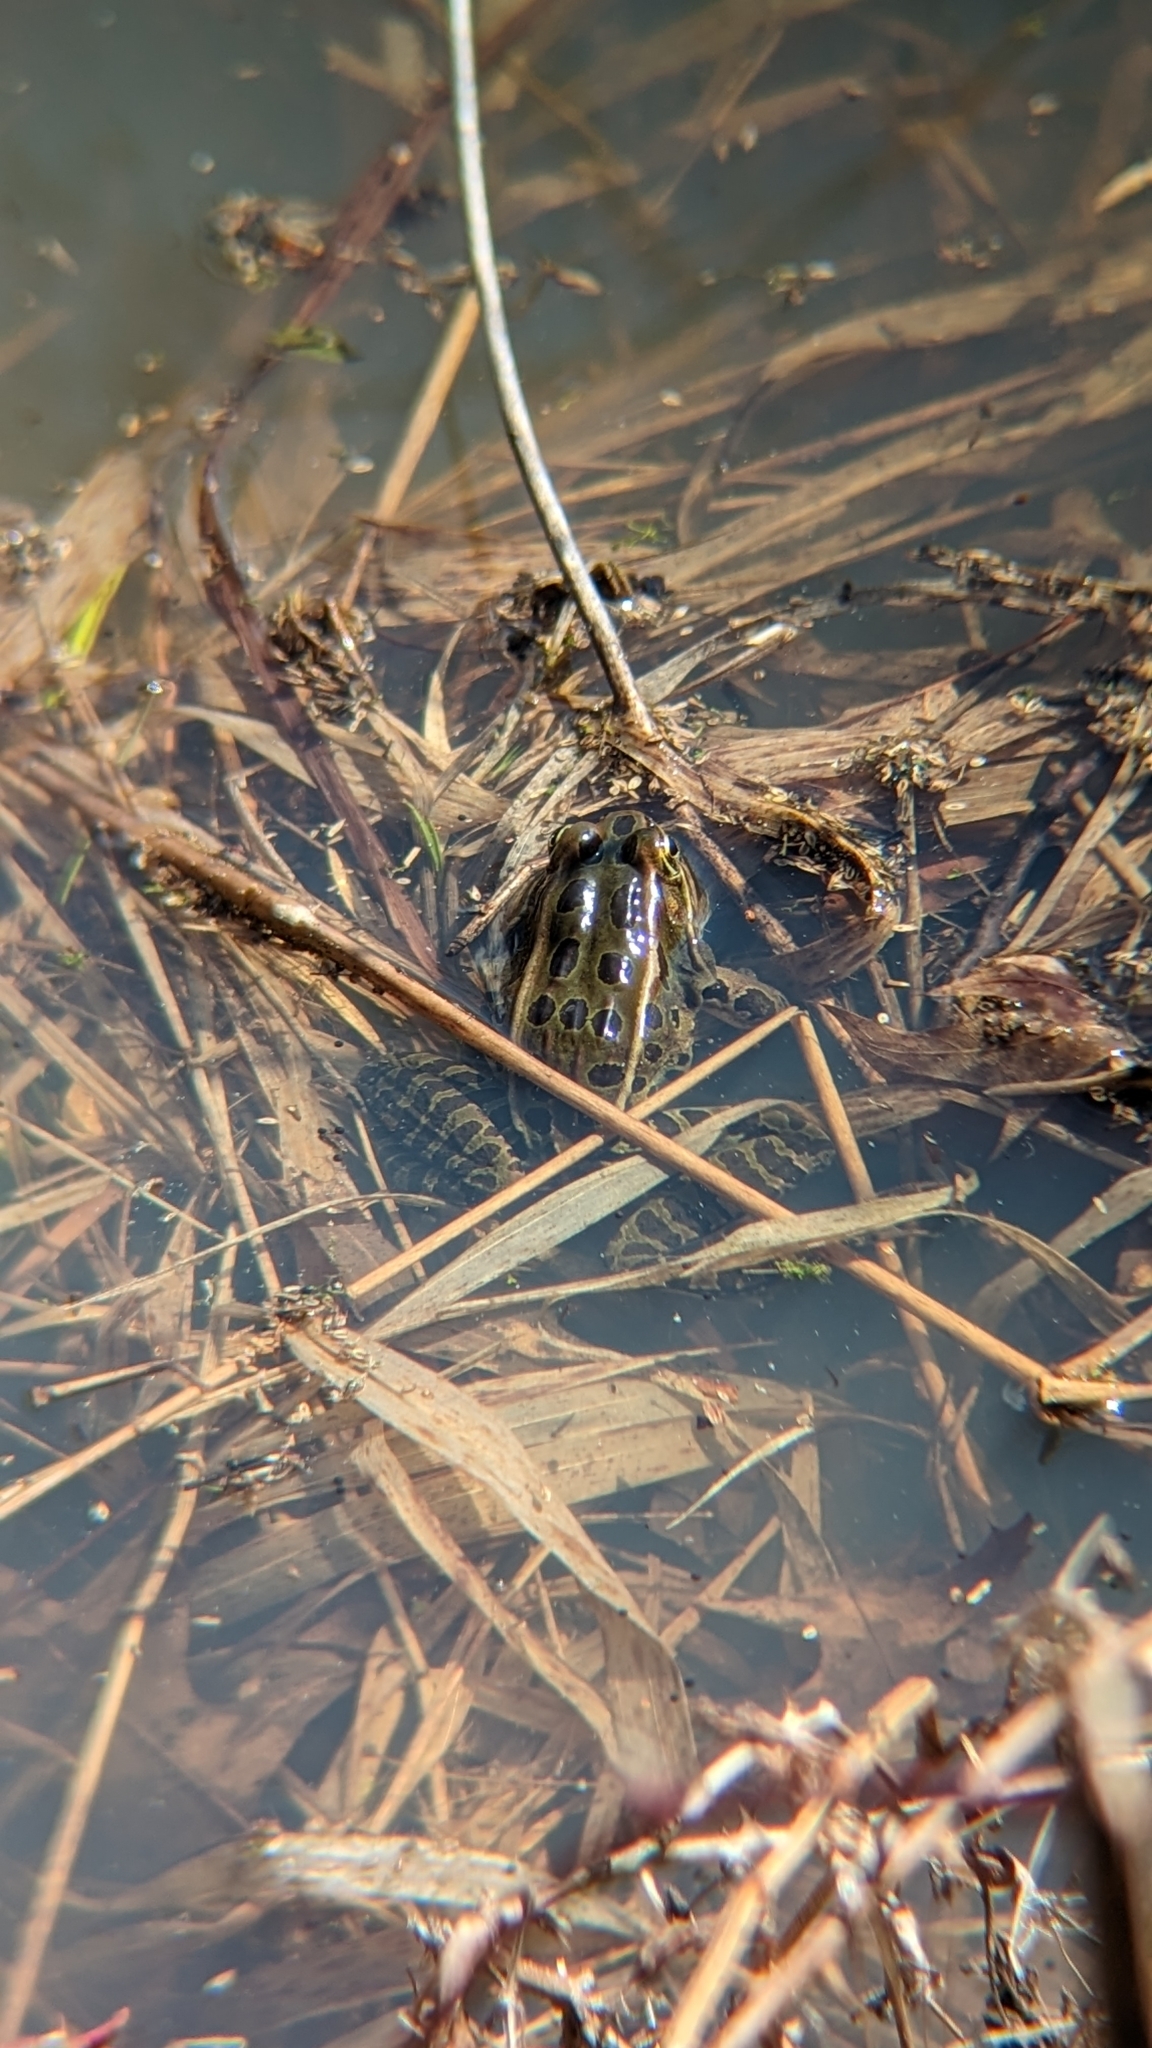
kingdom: Animalia
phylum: Chordata
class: Amphibia
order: Anura
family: Ranidae
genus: Lithobates
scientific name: Lithobates pipiens
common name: Northern leopard frog
